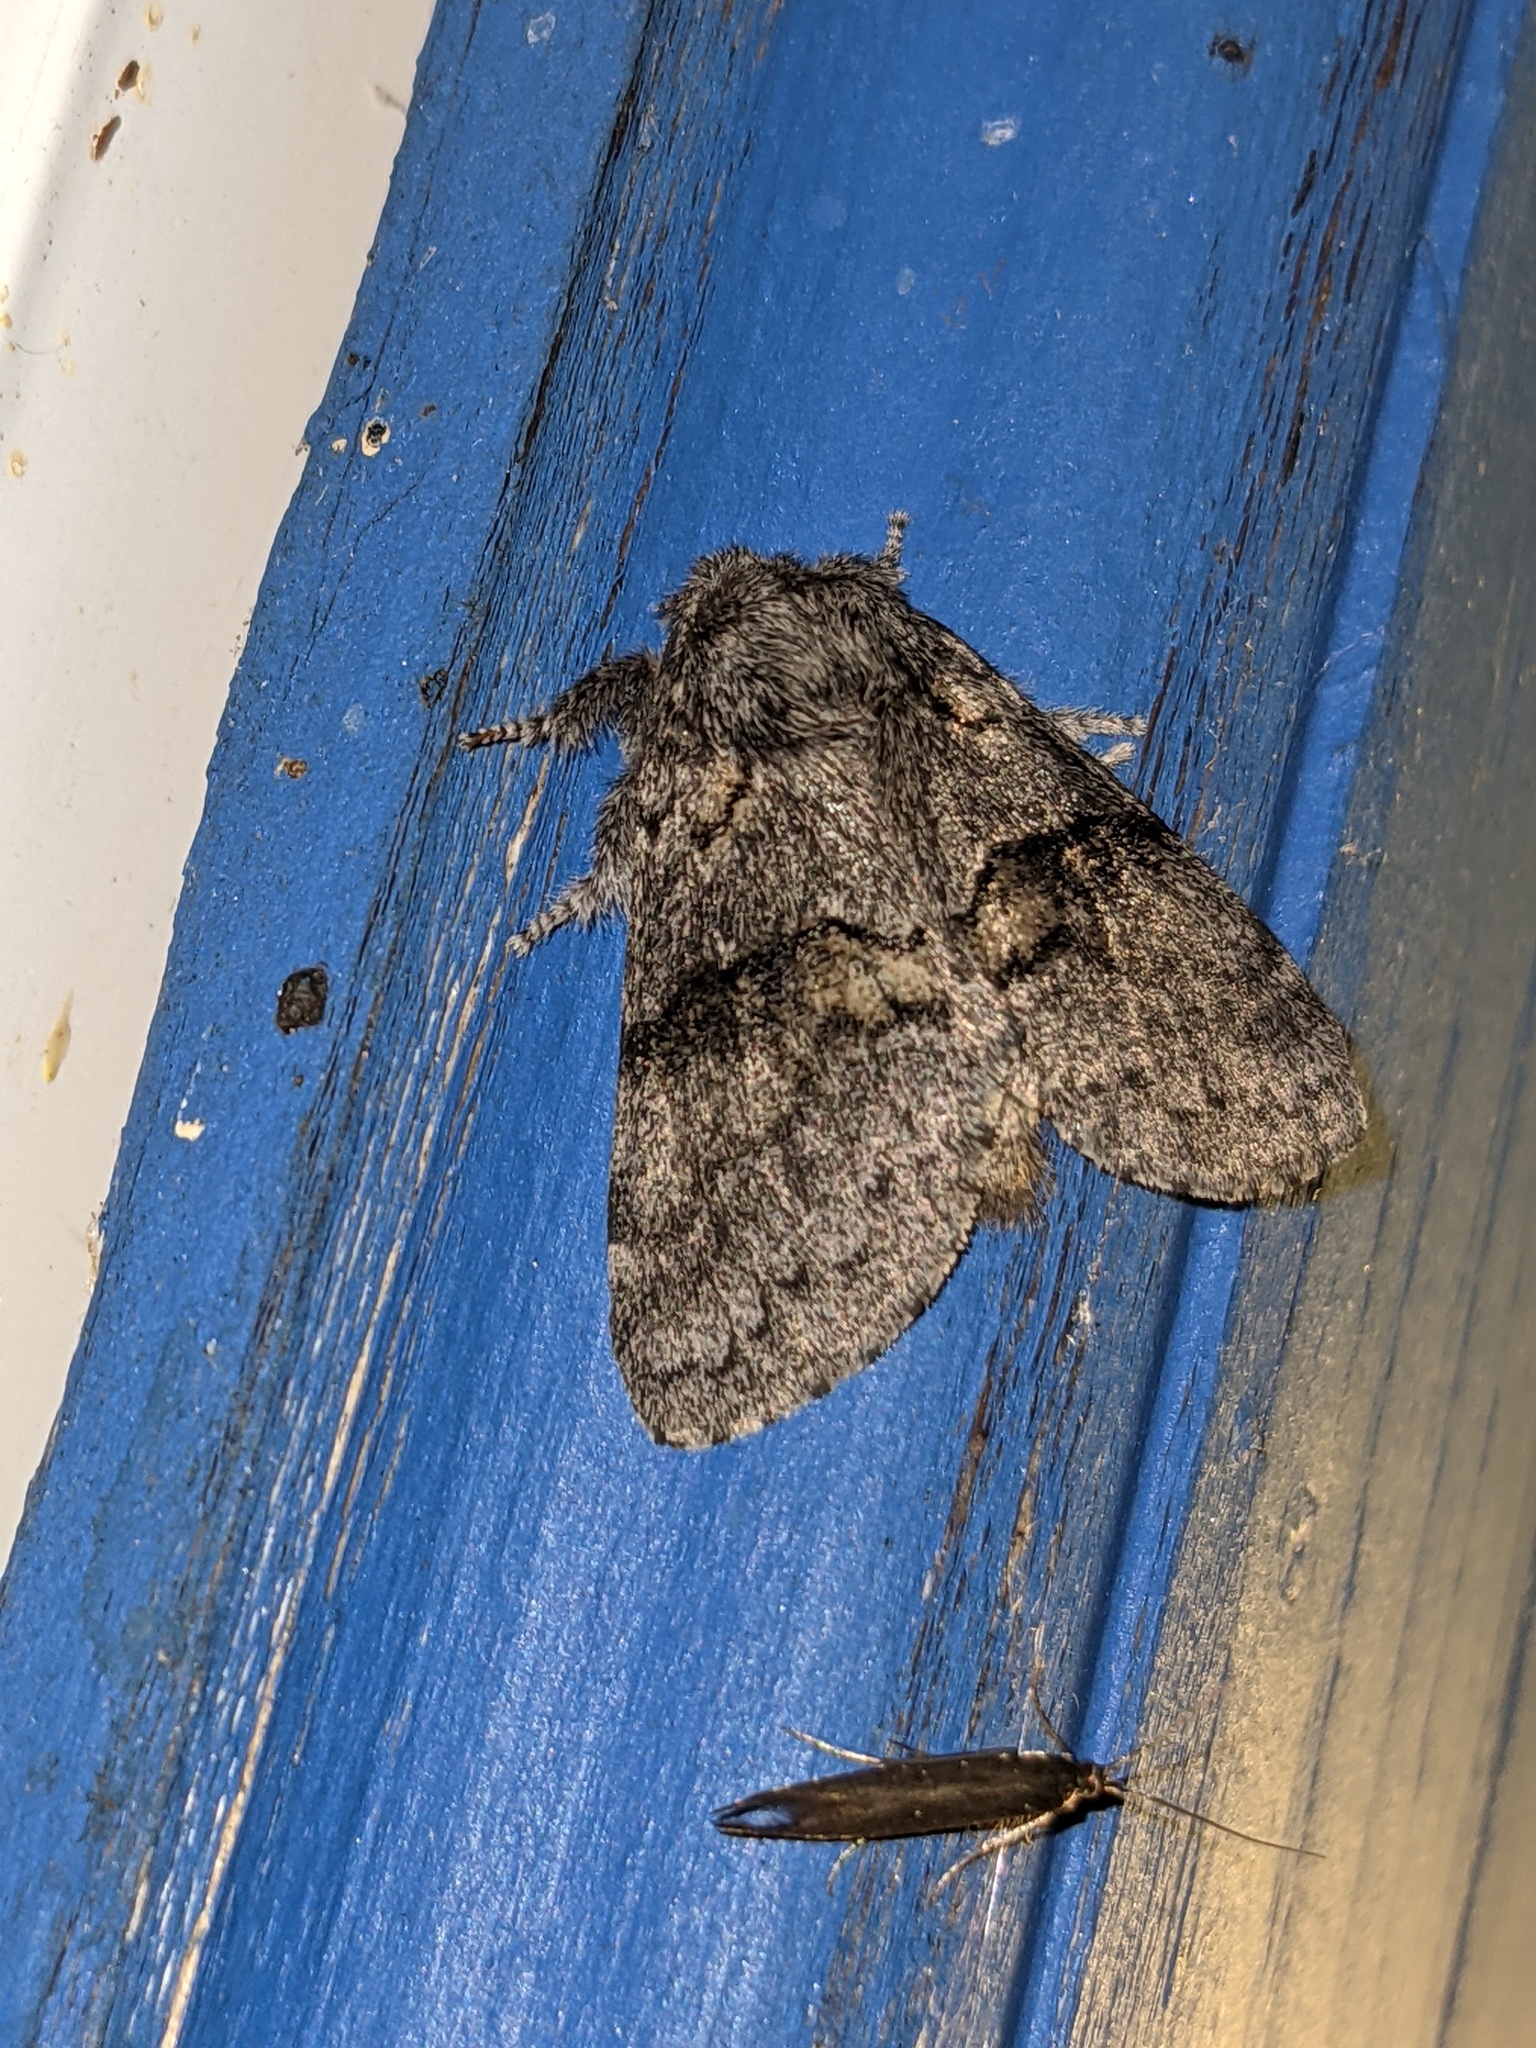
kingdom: Animalia
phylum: Arthropoda
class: Insecta
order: Lepidoptera
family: Notodontidae
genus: Gluphisia
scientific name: Gluphisia septentrionis
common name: Common gluphisia
